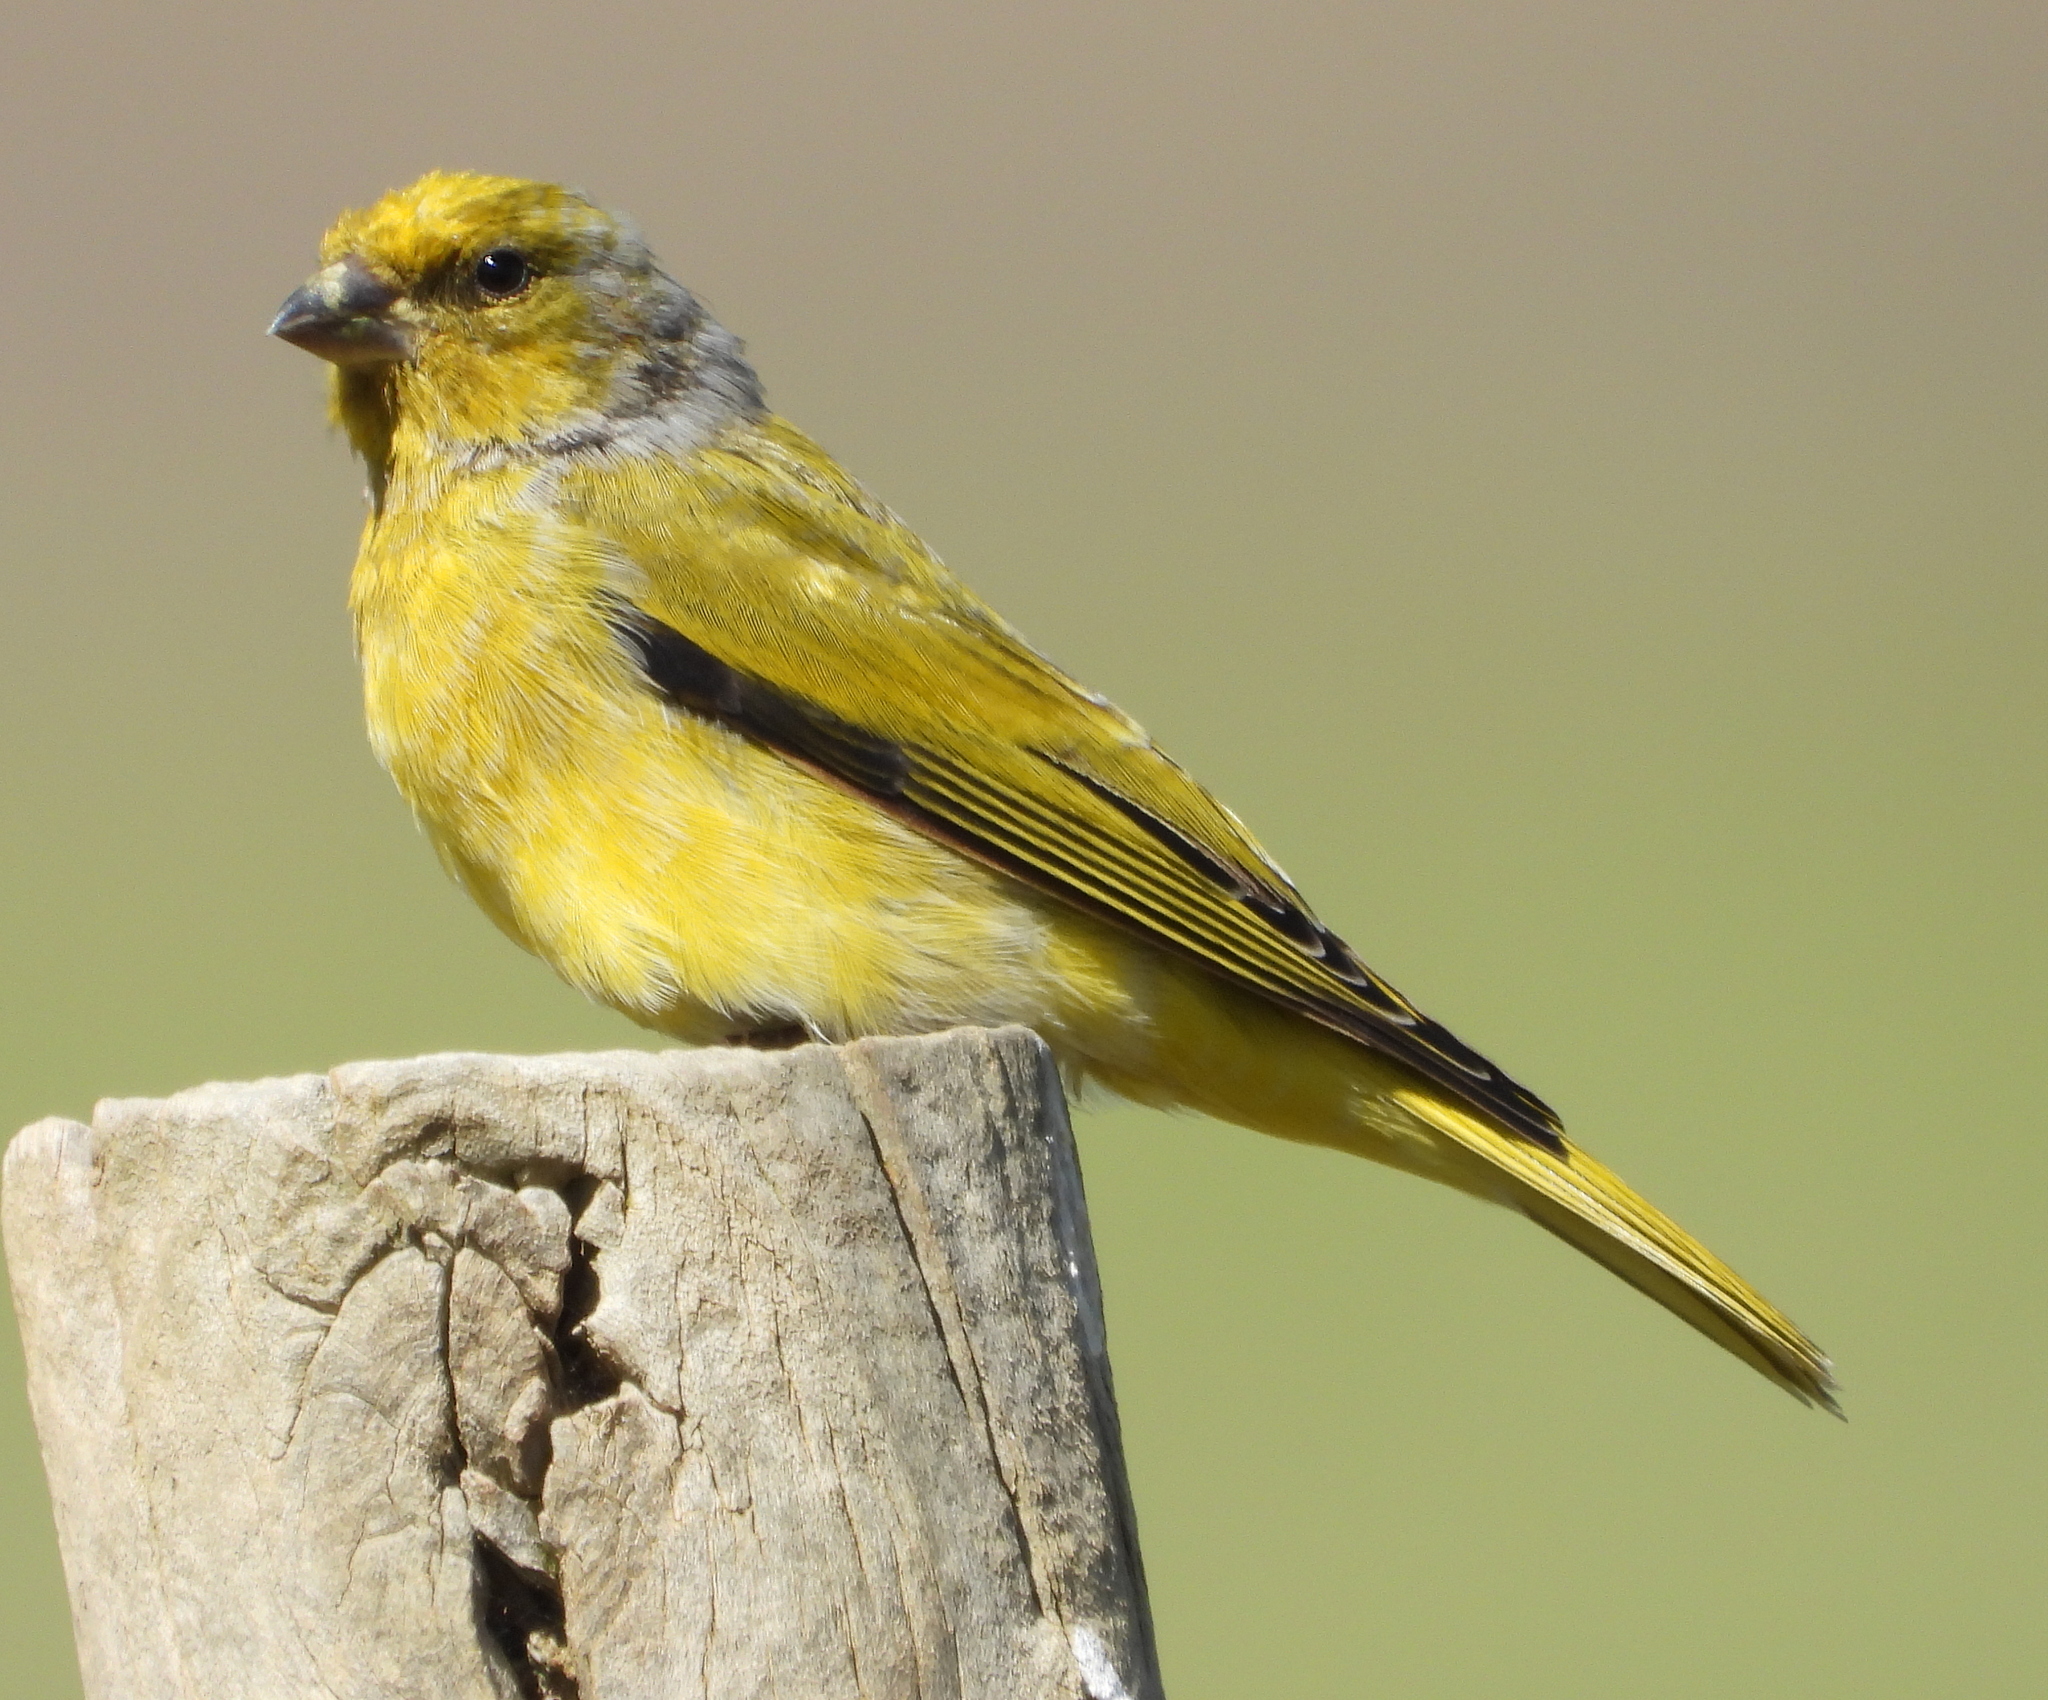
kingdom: Animalia
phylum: Chordata
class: Aves
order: Passeriformes
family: Fringillidae
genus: Serinus
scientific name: Serinus canicollis
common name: Cape canary
